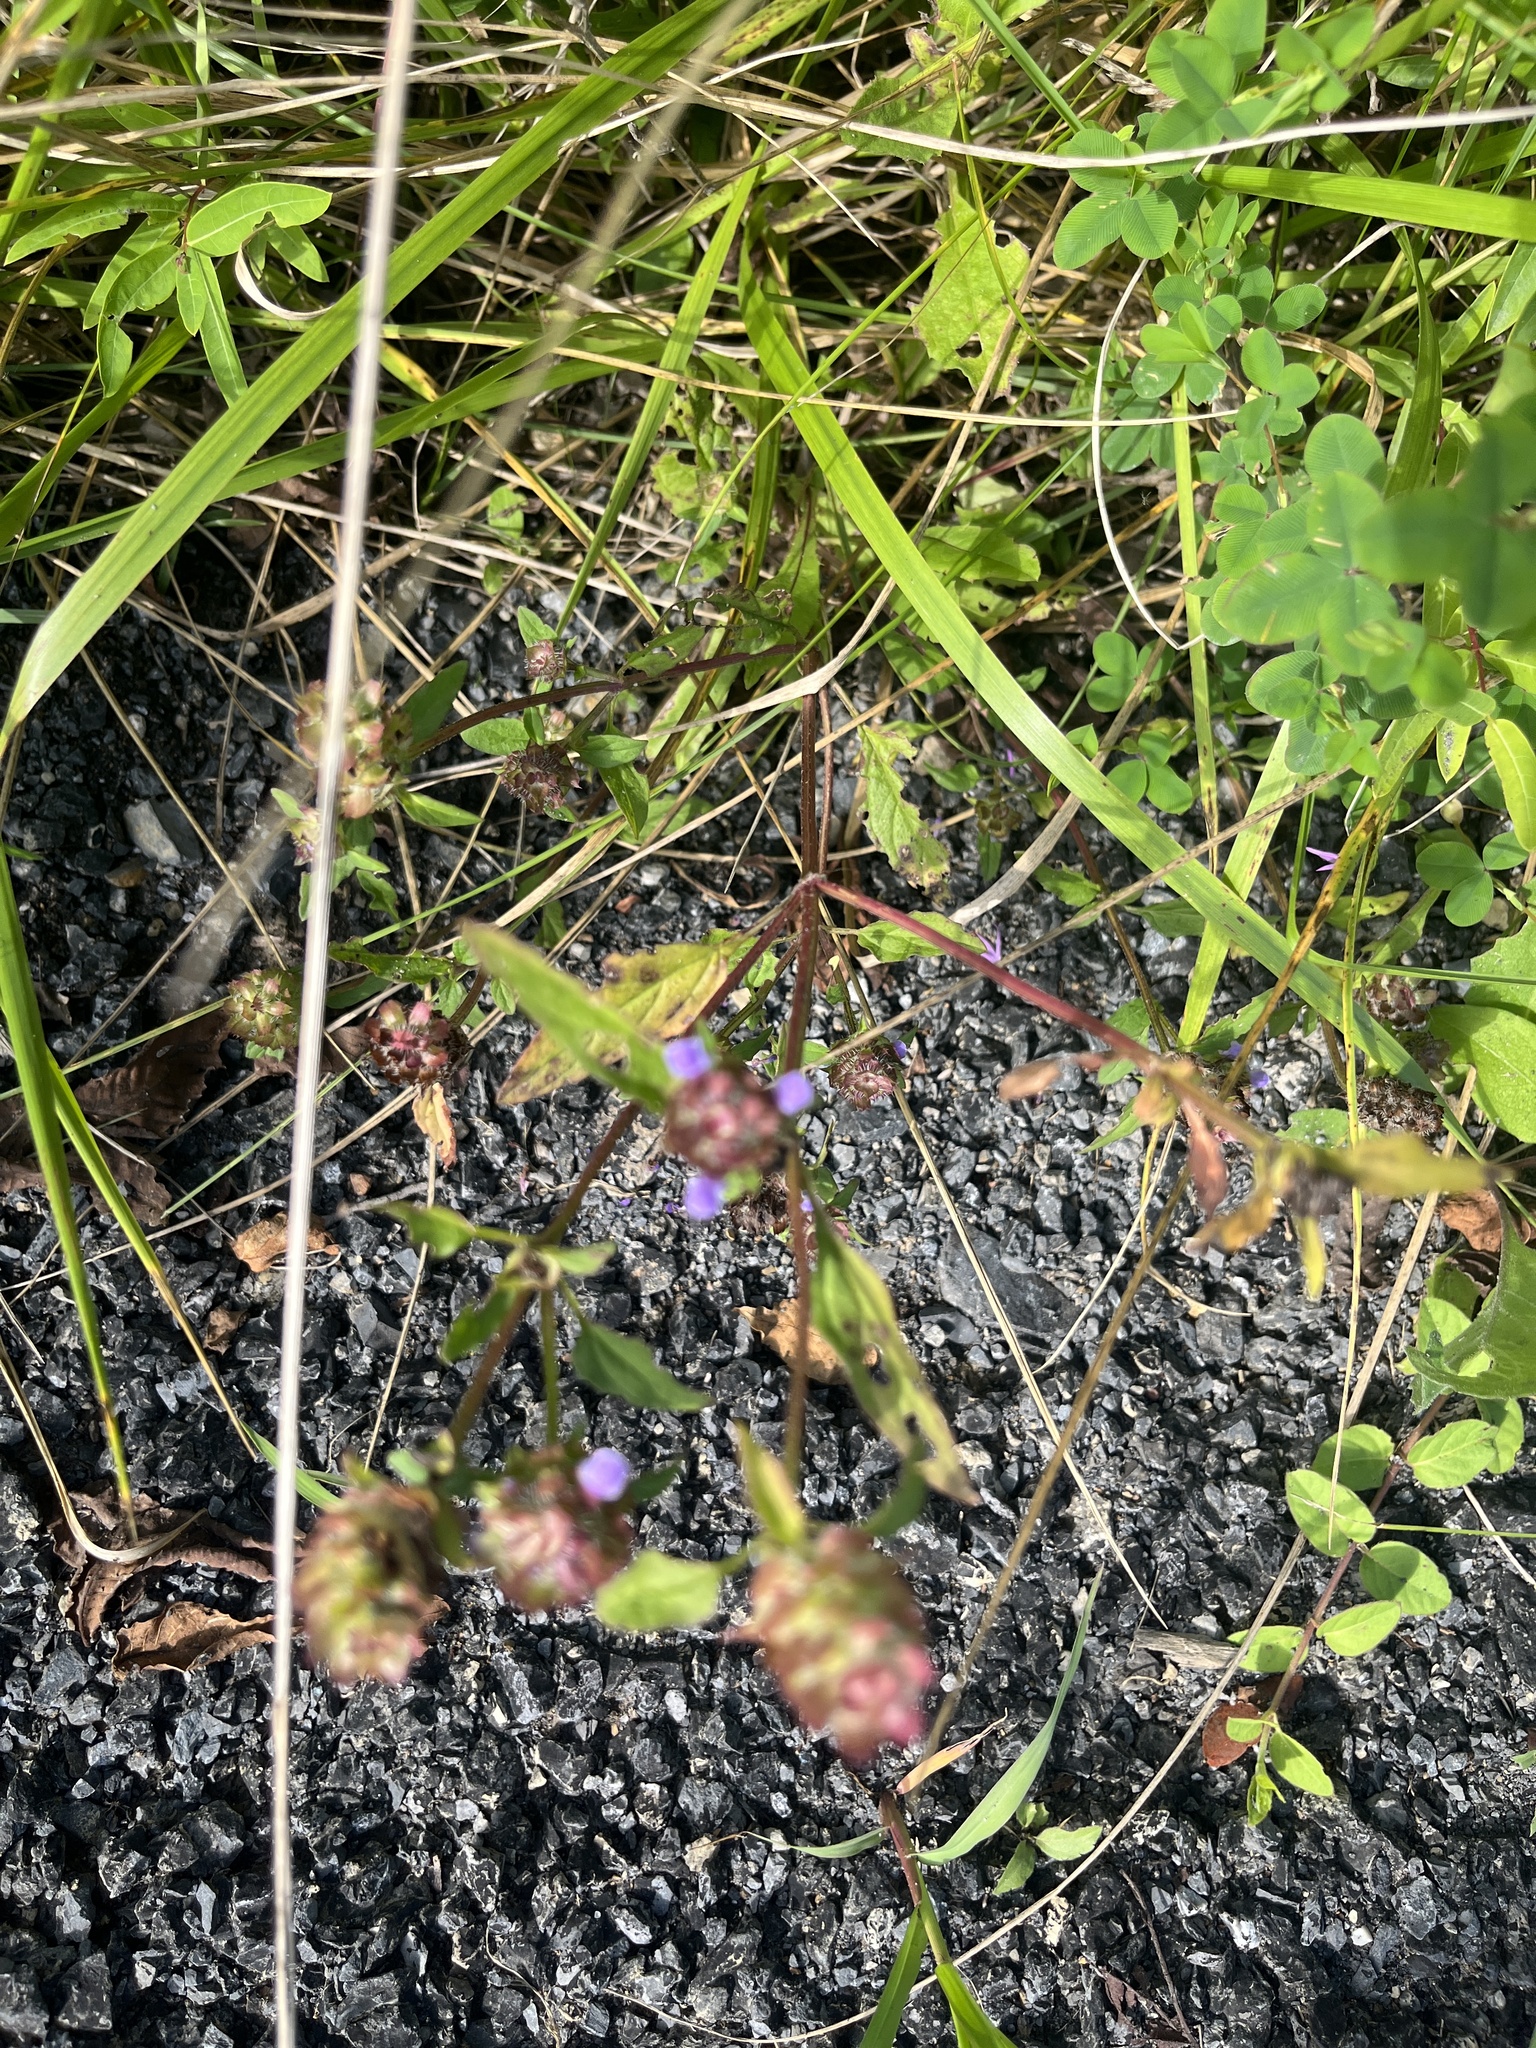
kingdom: Plantae
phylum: Tracheophyta
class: Magnoliopsida
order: Lamiales
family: Lamiaceae
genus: Prunella
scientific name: Prunella vulgaris
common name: Heal-all
